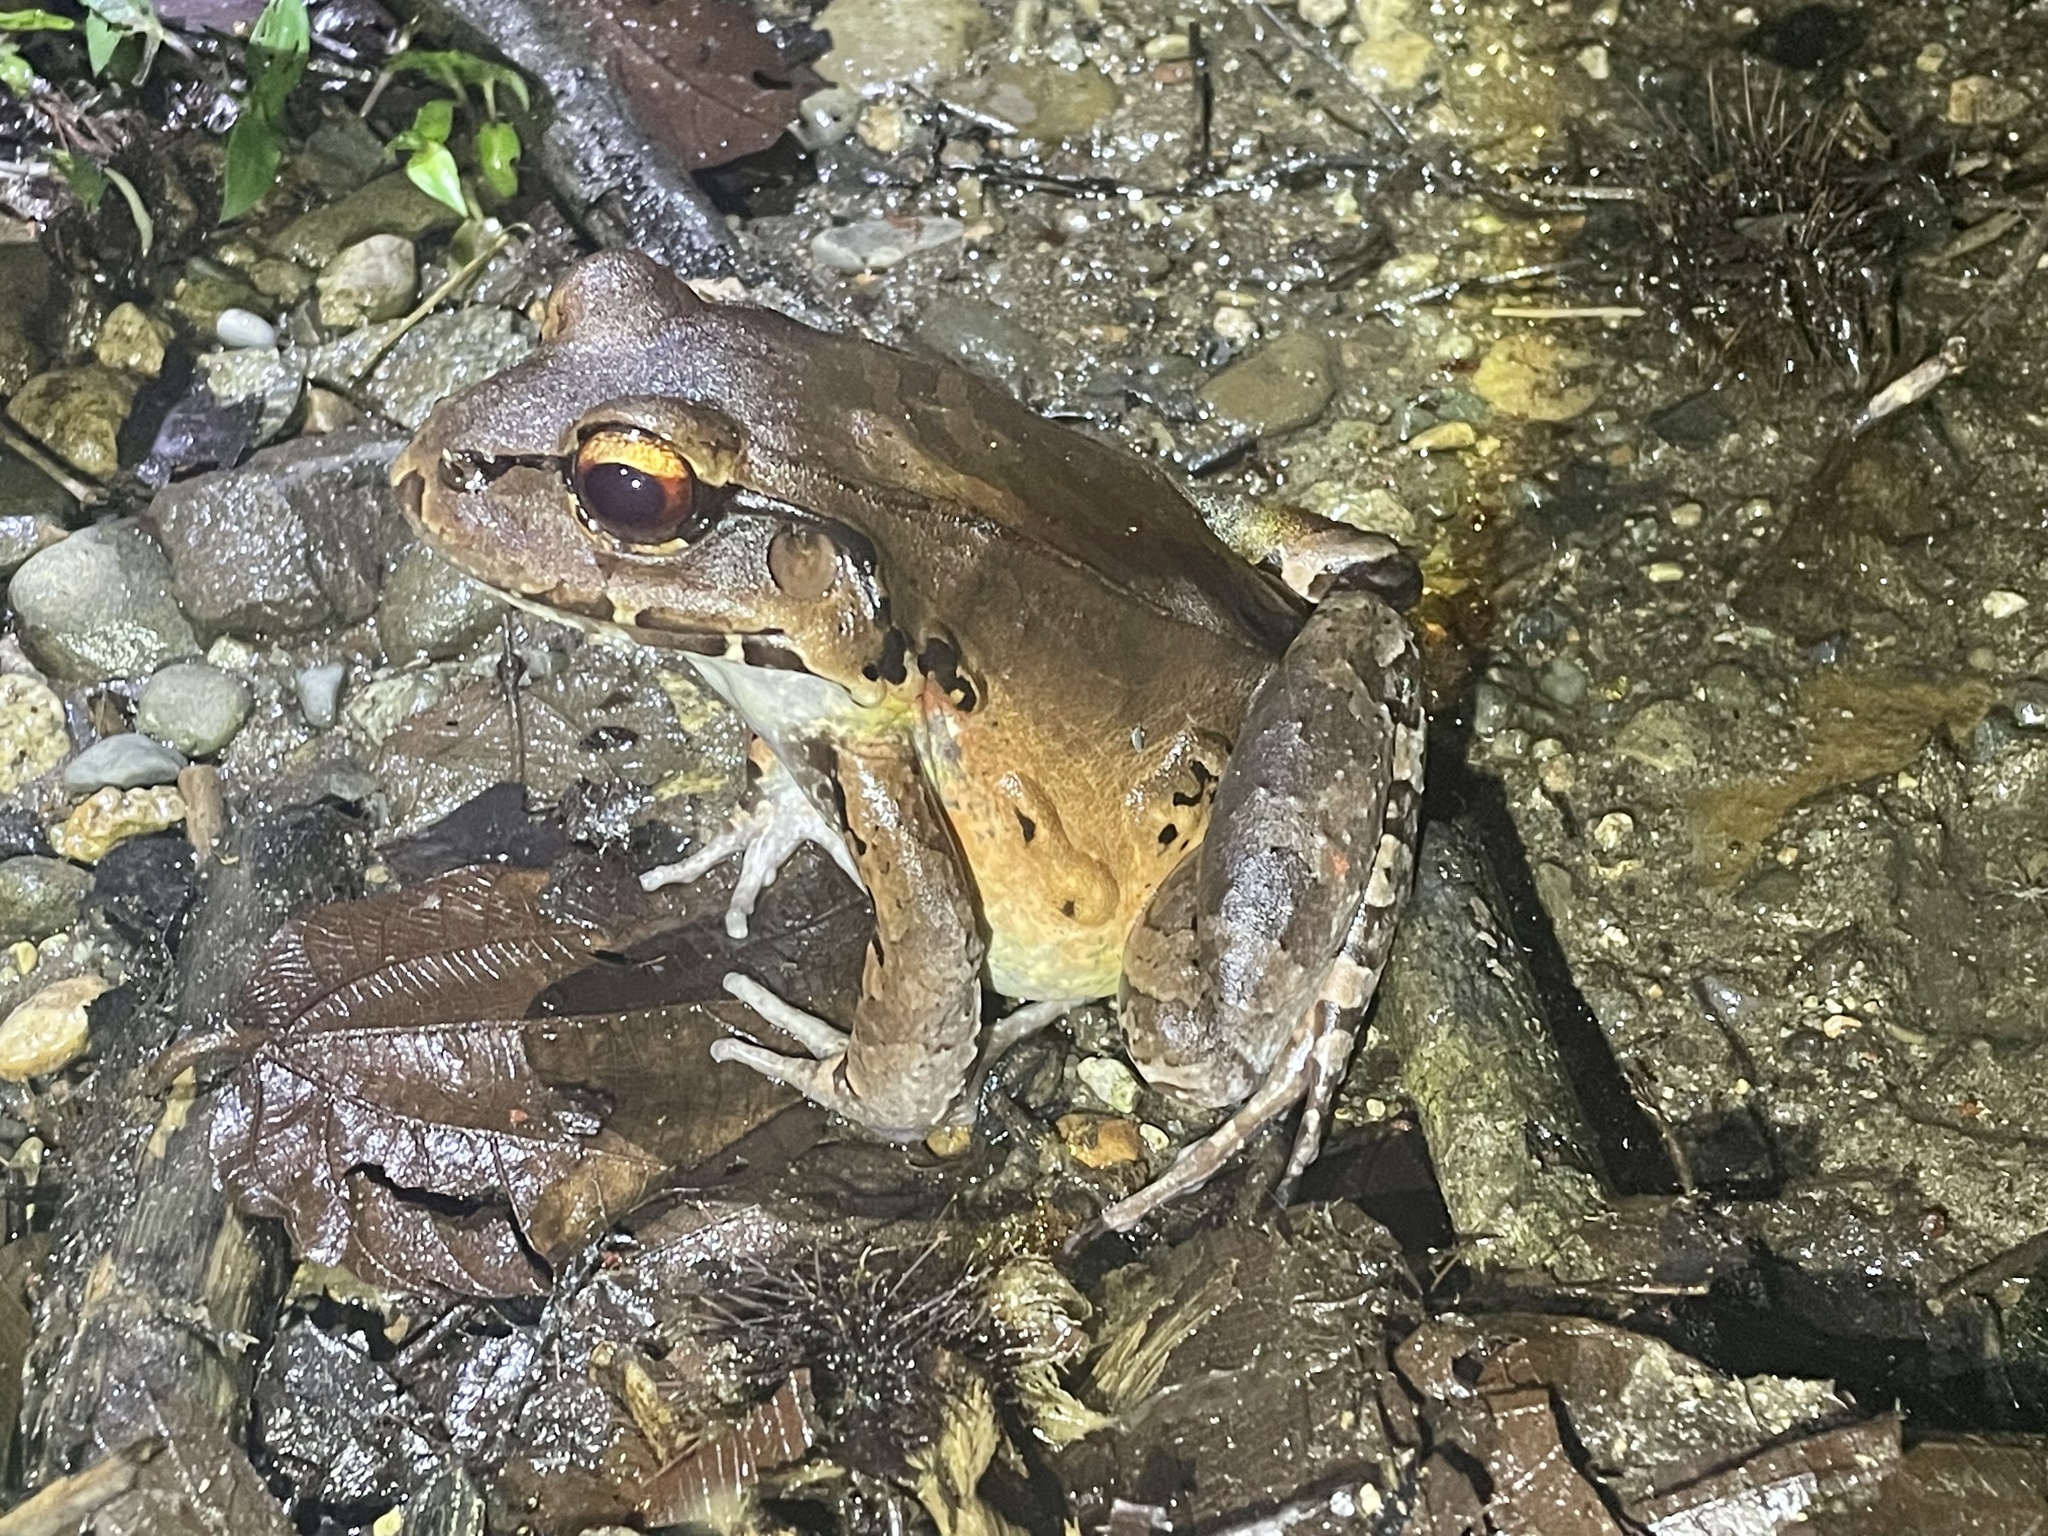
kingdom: Animalia
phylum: Chordata
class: Amphibia
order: Anura
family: Leptodactylidae
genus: Leptodactylus
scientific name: Leptodactylus savagei
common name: Savage's thin-toed frog
